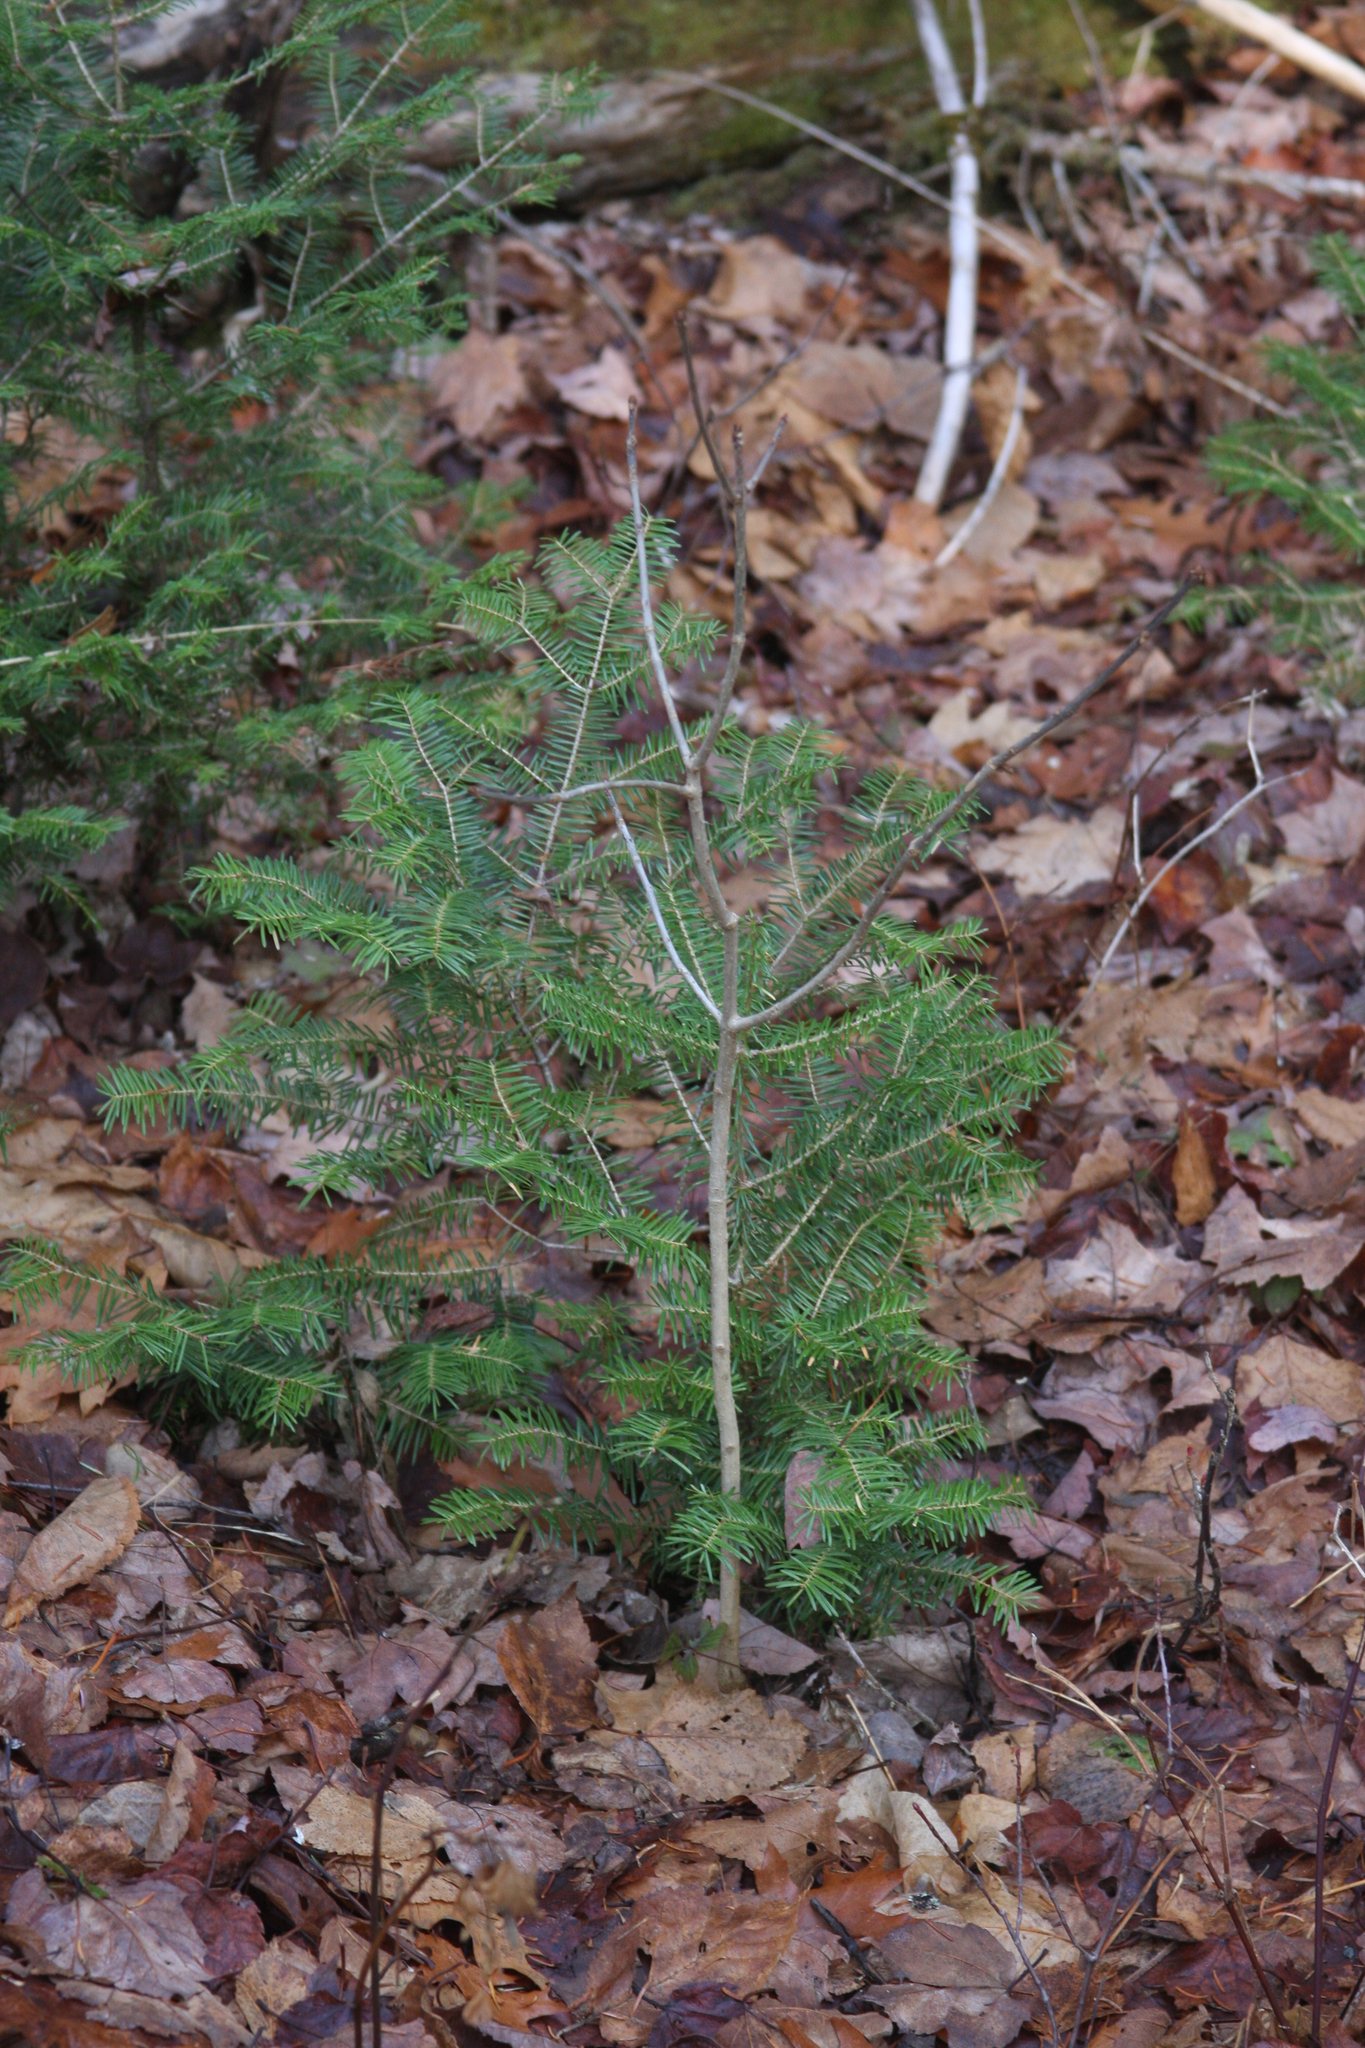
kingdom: Plantae
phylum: Tracheophyta
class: Pinopsida
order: Pinales
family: Pinaceae
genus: Abies
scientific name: Abies balsamea
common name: Balsam fir
